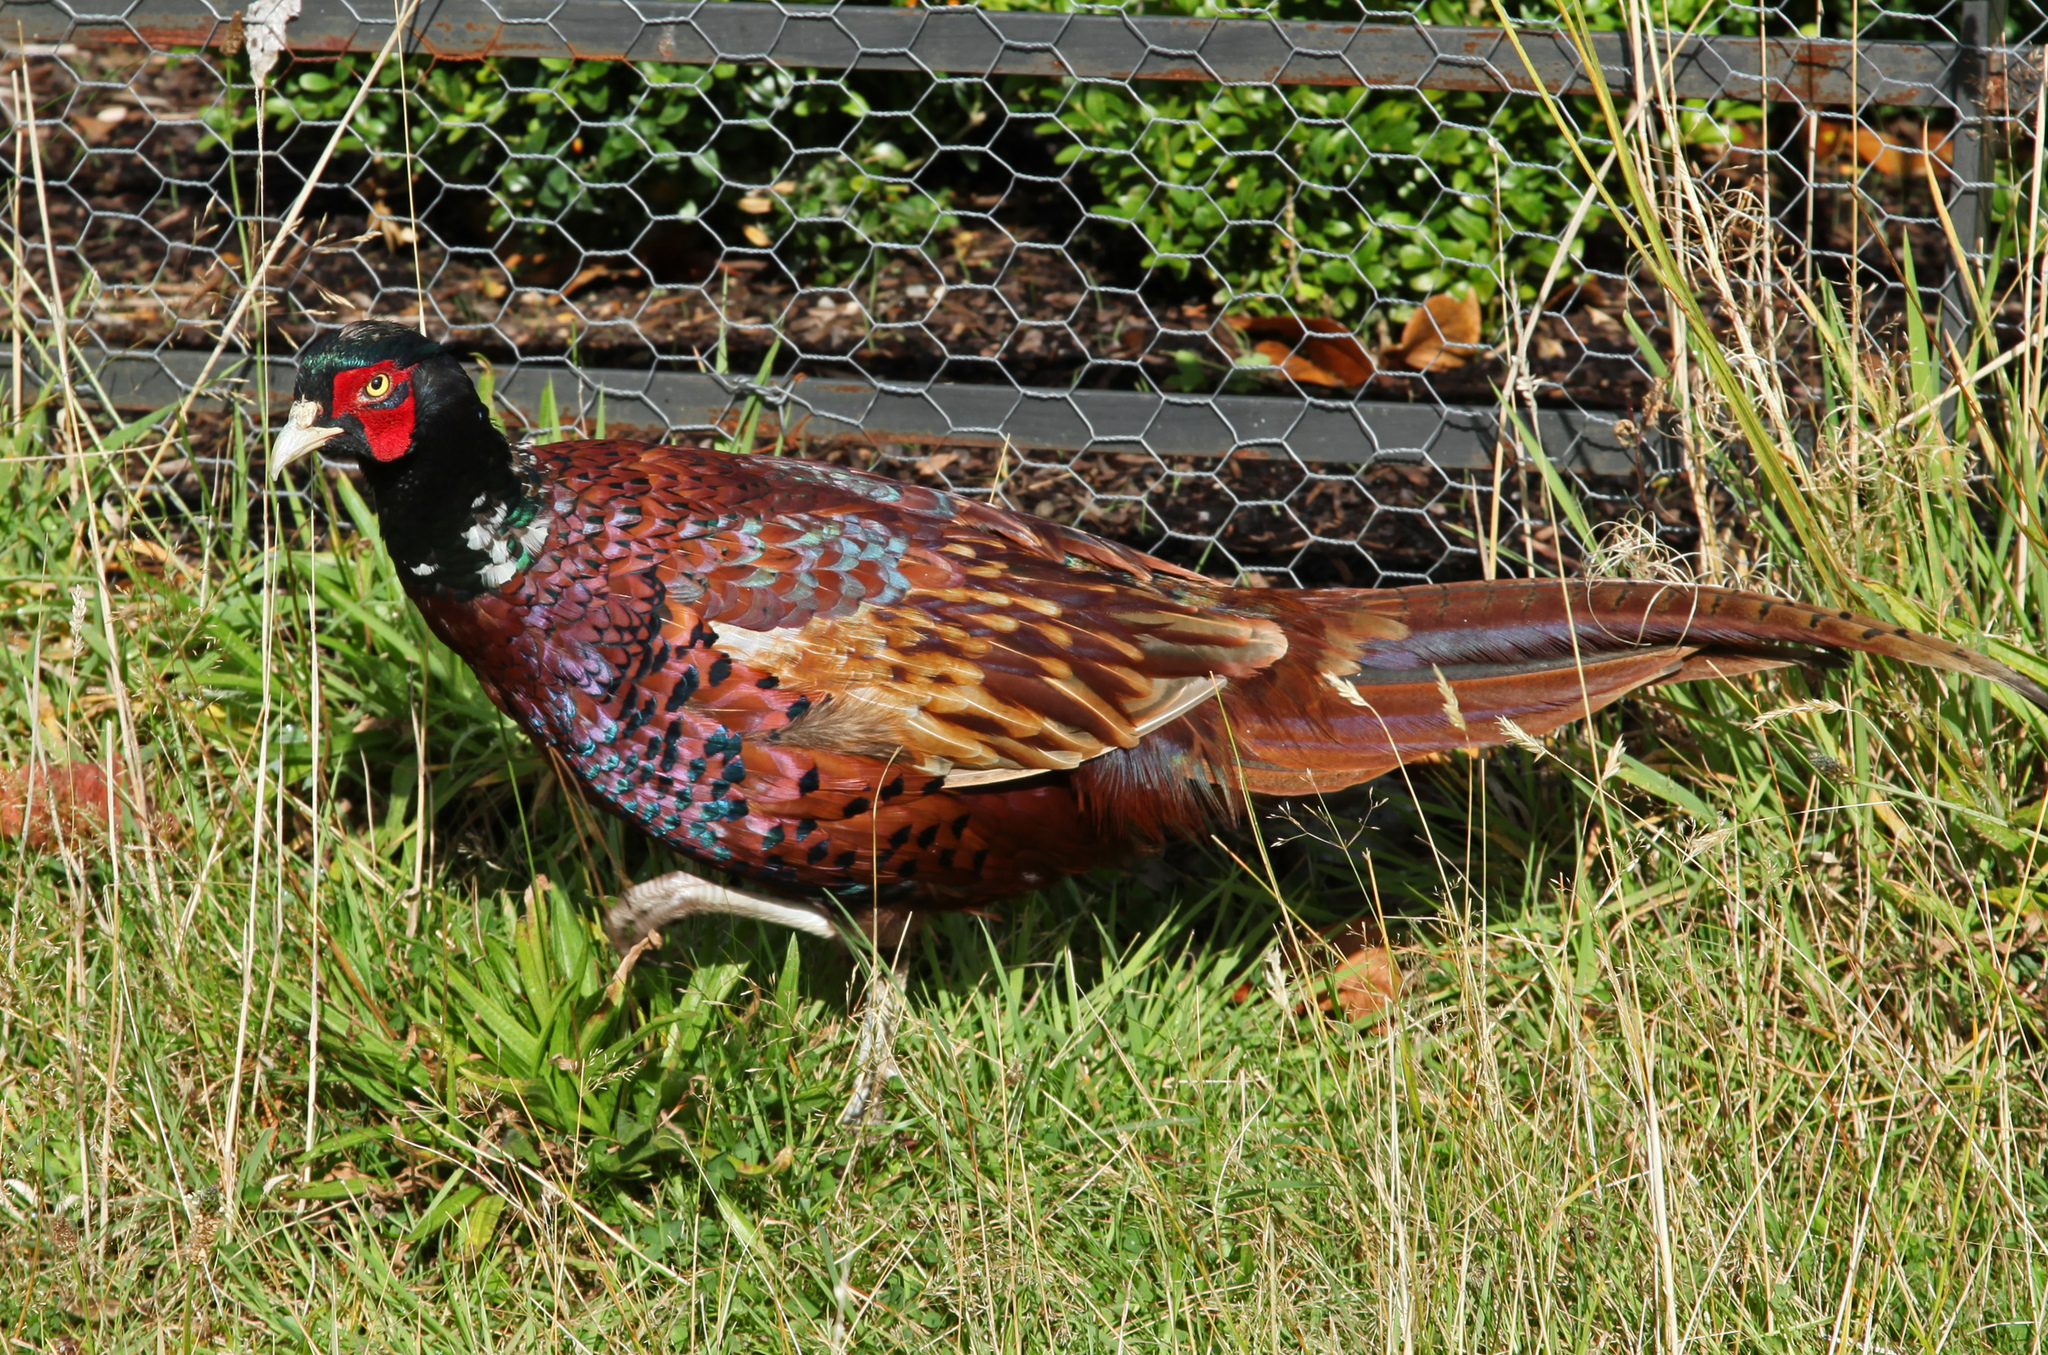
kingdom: Animalia
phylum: Chordata
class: Aves
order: Galliformes
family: Phasianidae
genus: Phasianus
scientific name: Phasianus colchicus
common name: Common pheasant
